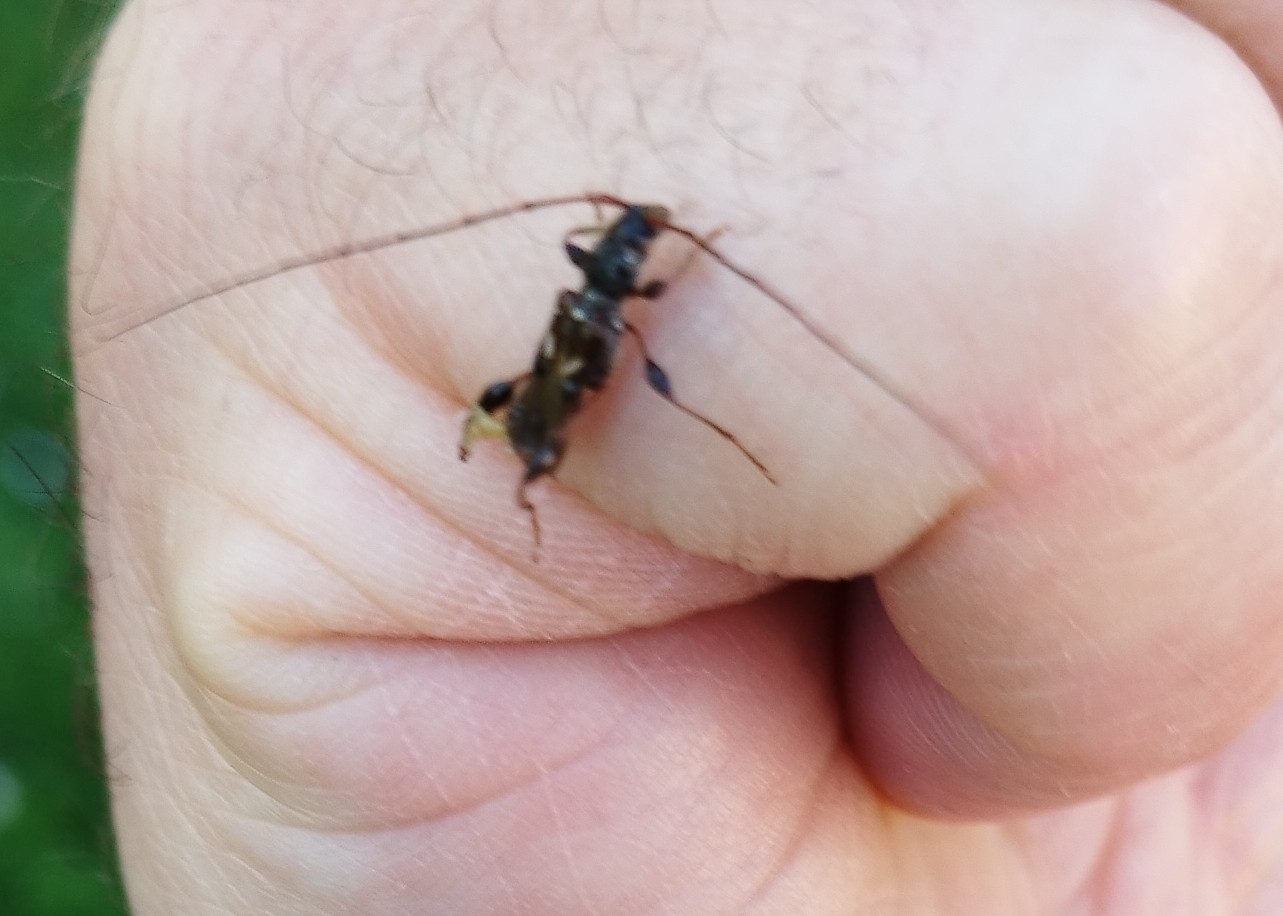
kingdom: Animalia
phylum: Arthropoda
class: Insecta
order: Coleoptera
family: Cerambycidae
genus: Molorchus
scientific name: Molorchus minor
